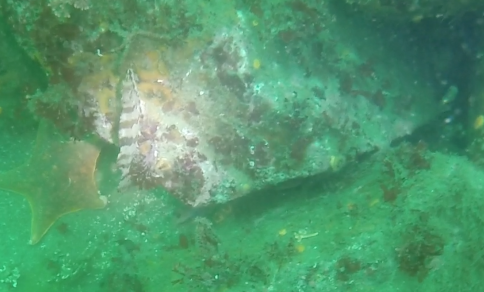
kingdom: Animalia
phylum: Chordata
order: Scorpaeniformes
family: Hexagrammidae
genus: Oxylebius
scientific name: Oxylebius pictus
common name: Painted greenling
